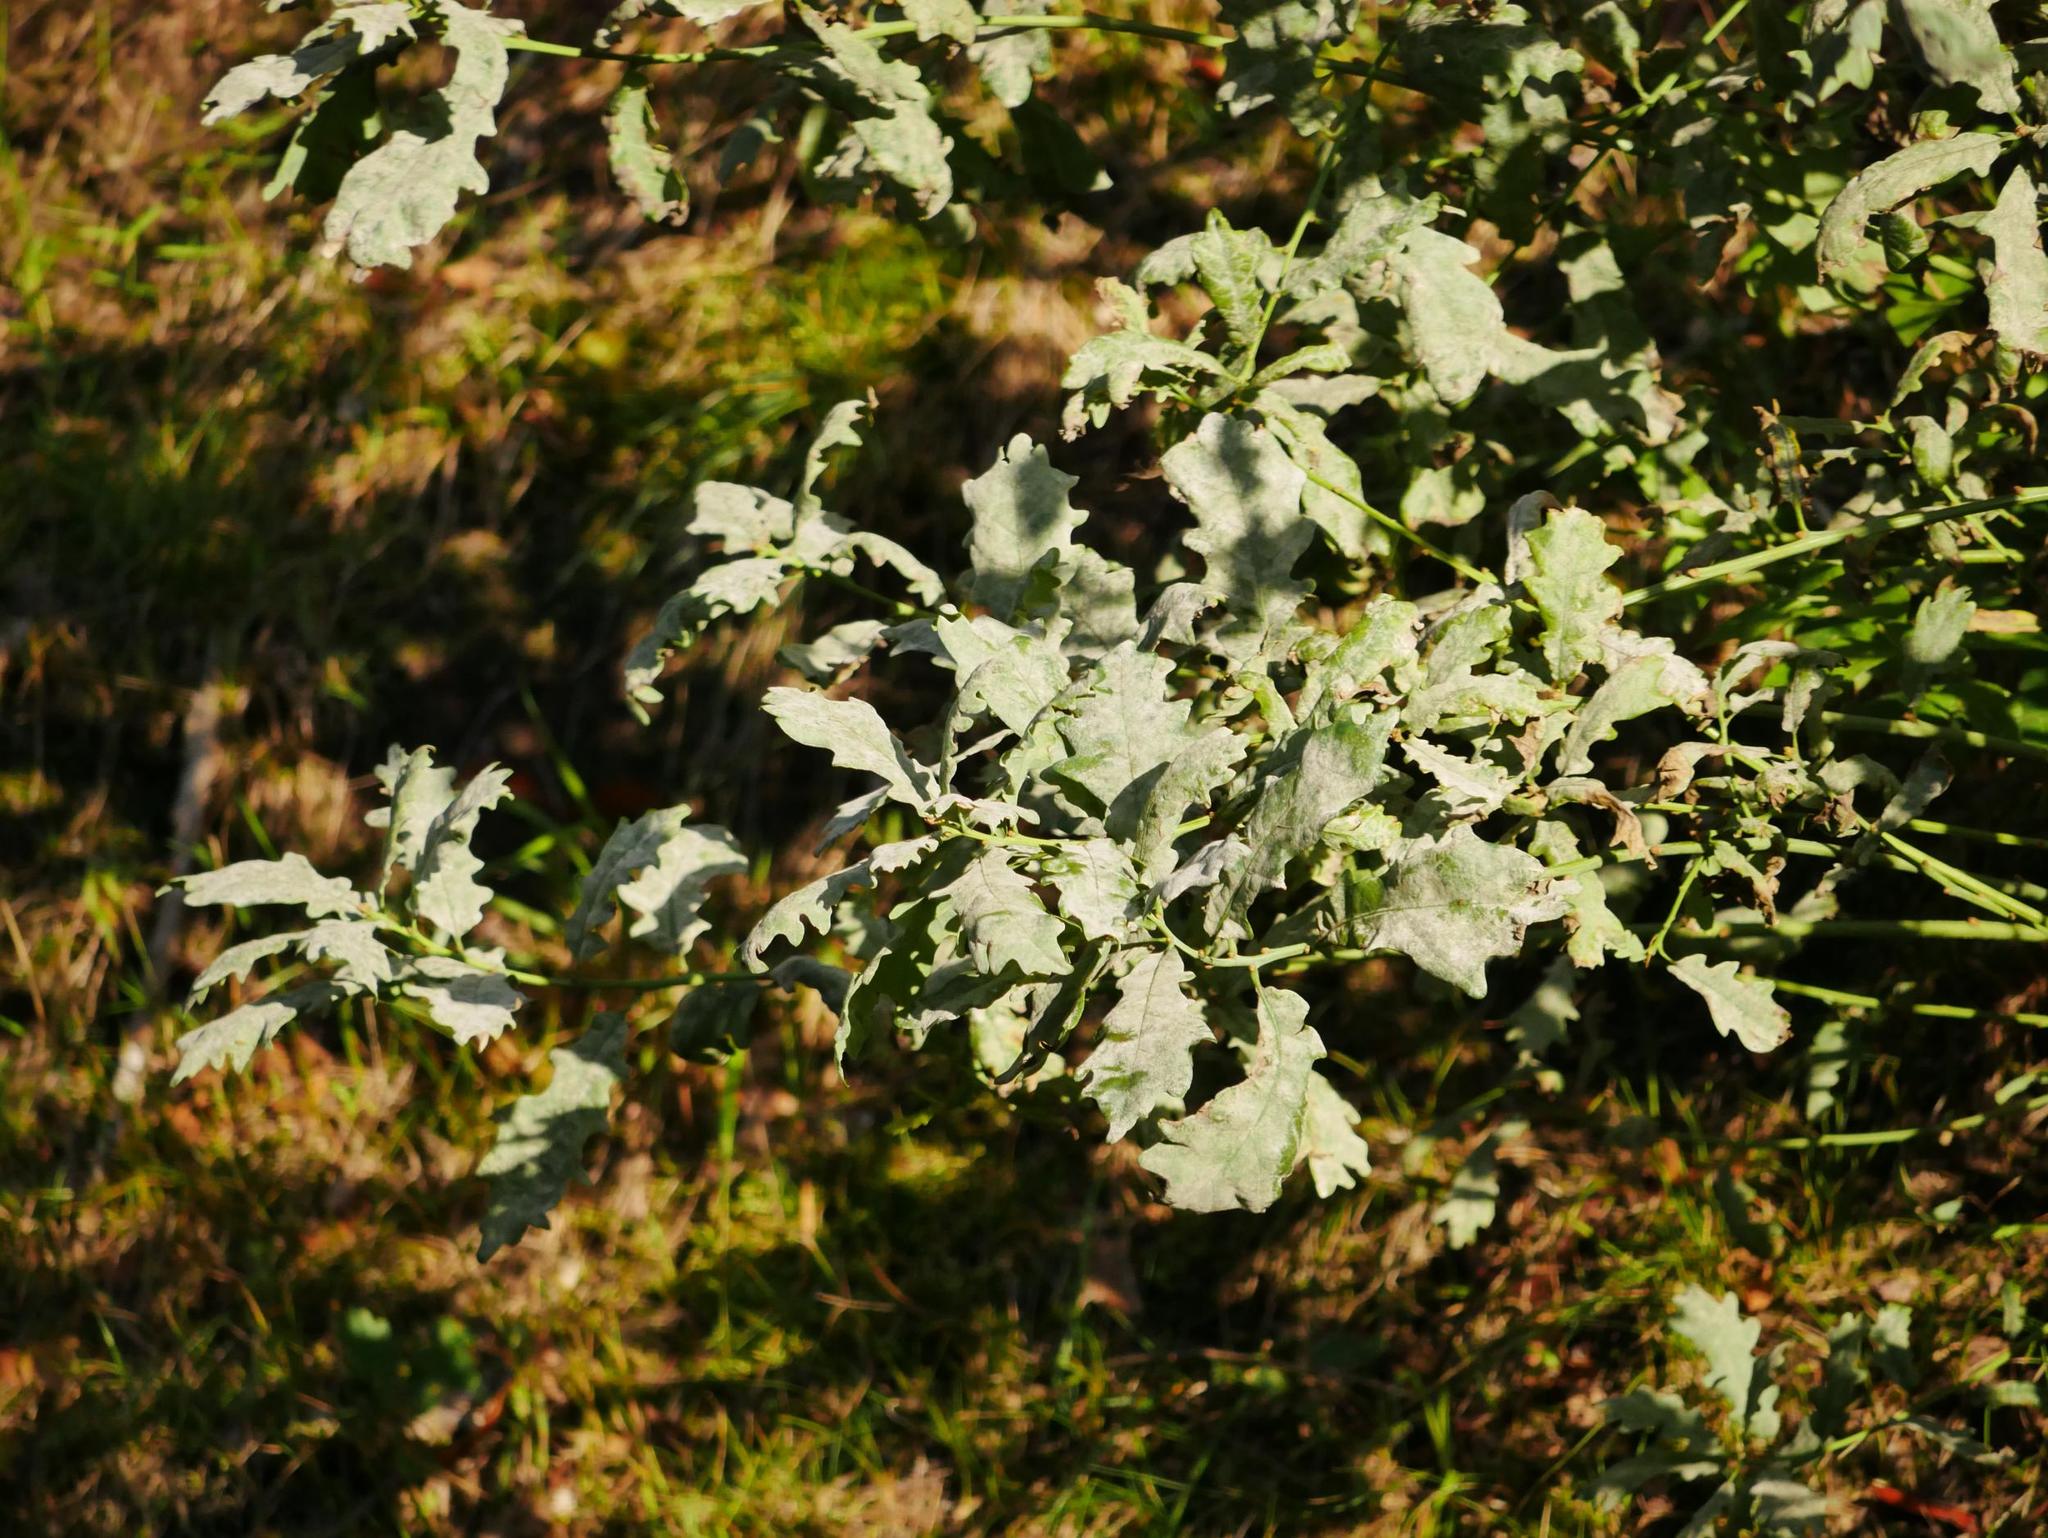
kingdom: Fungi
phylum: Ascomycota
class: Leotiomycetes
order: Helotiales
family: Erysiphaceae
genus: Erysiphe
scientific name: Erysiphe
